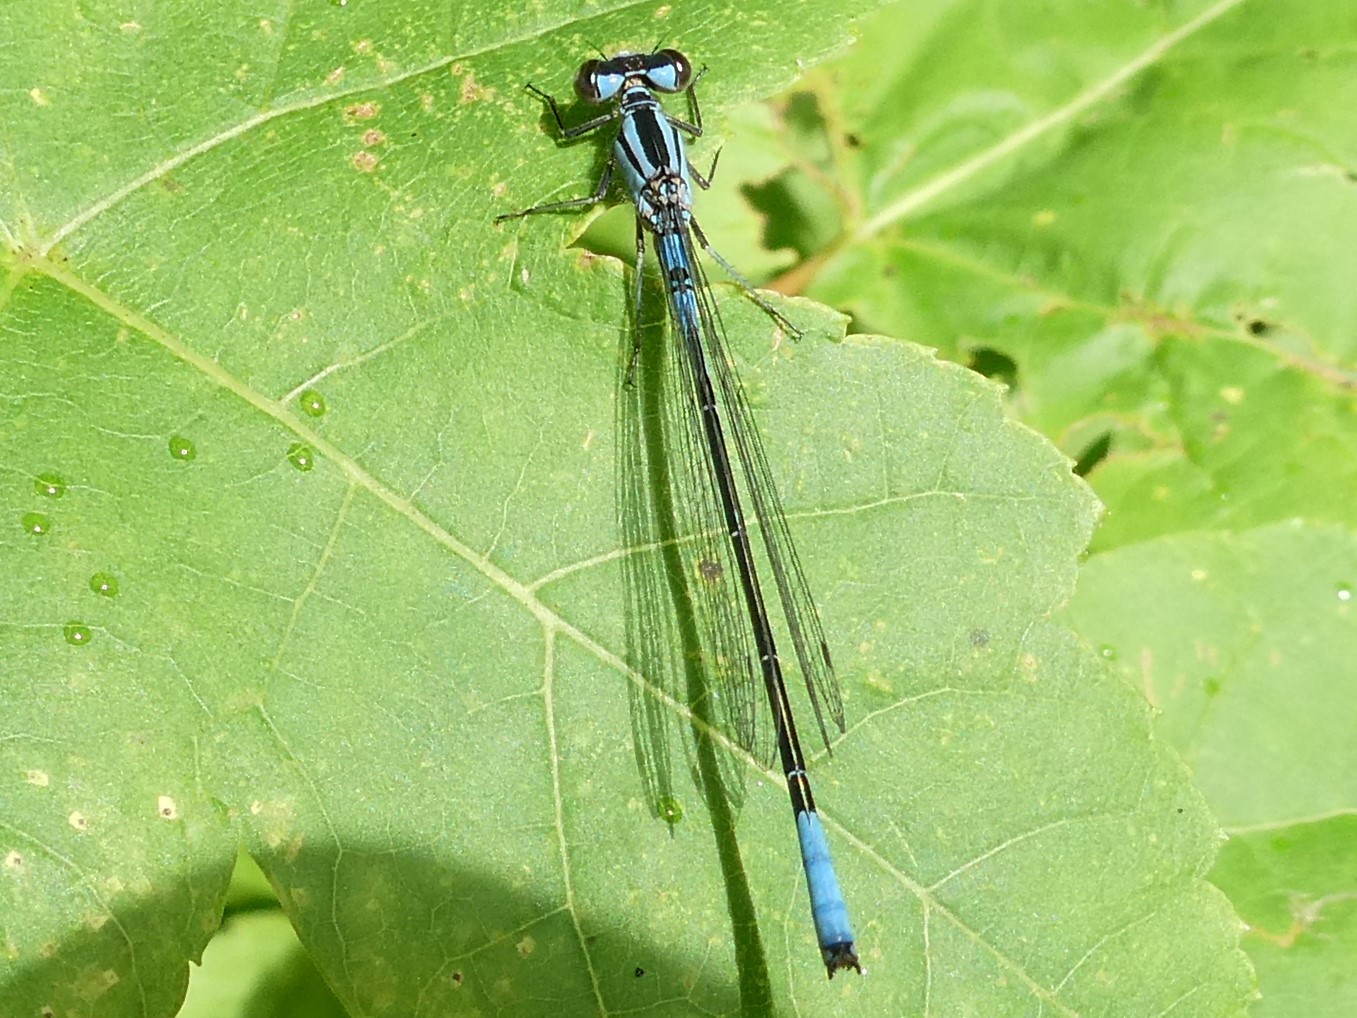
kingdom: Animalia
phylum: Arthropoda
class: Insecta
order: Odonata
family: Coenagrionidae
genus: Enallagma
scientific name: Enallagma aspersum
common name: Azure bluet
